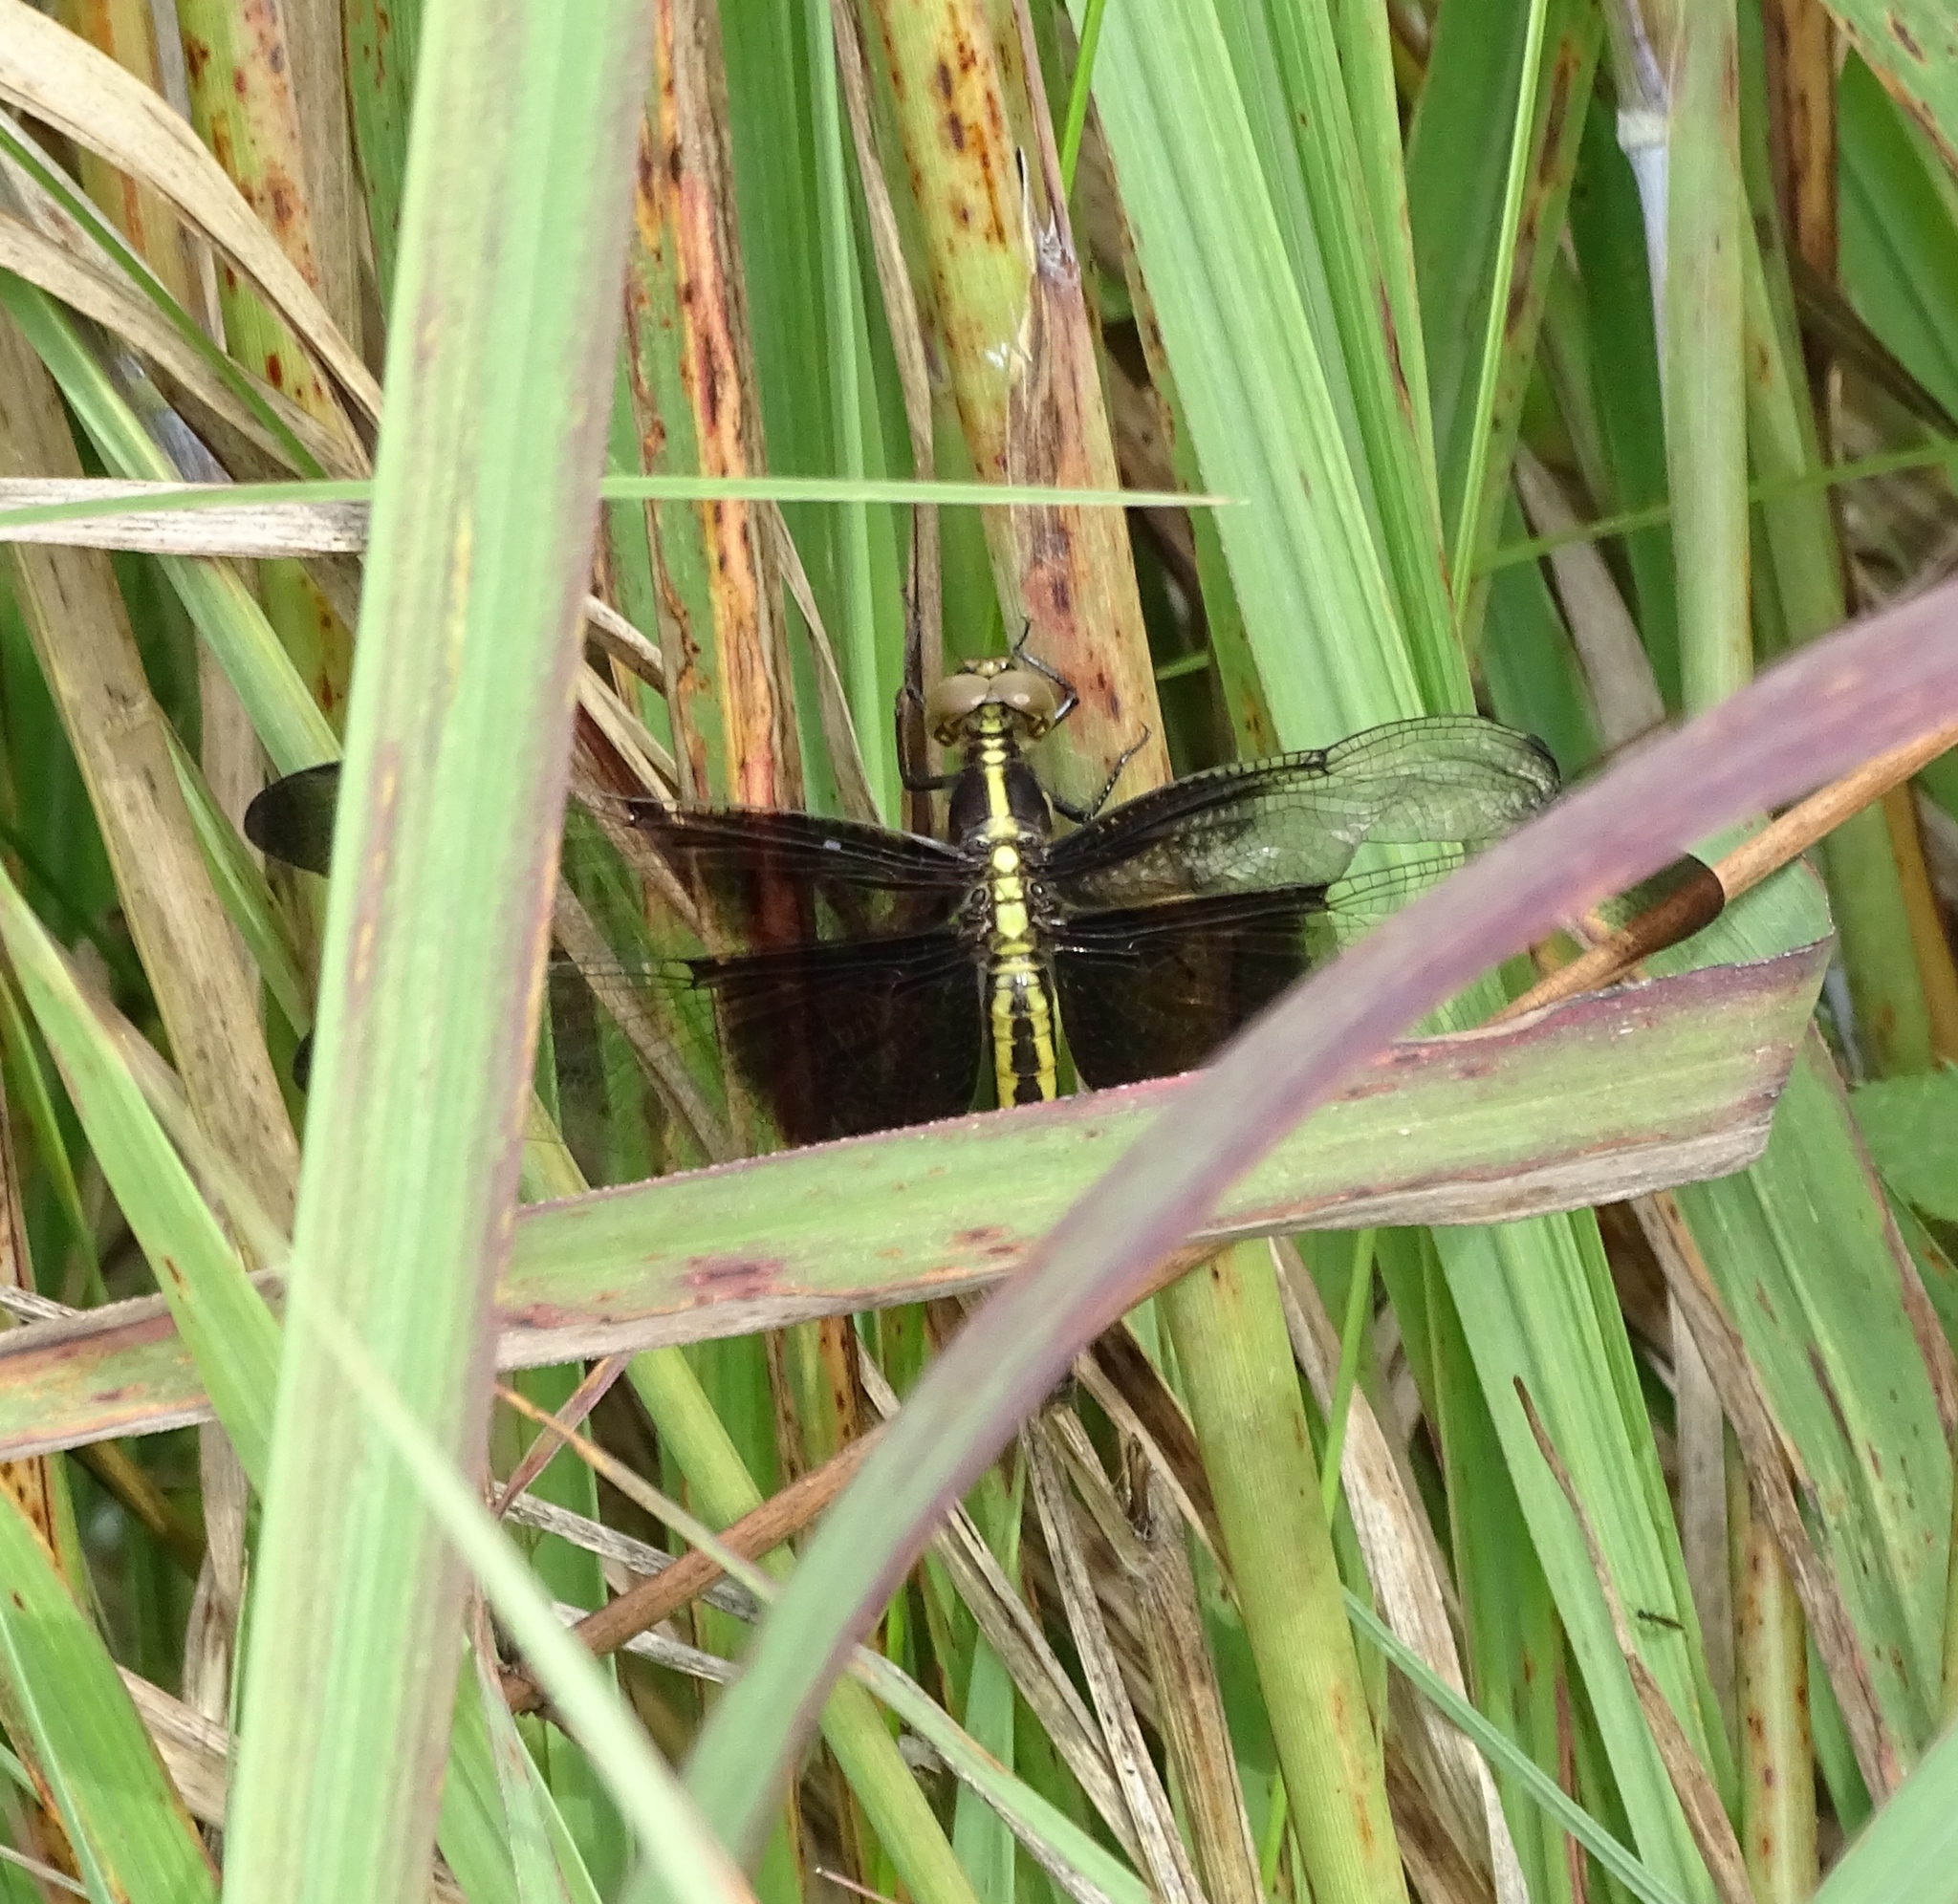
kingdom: Animalia
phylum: Arthropoda
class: Insecta
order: Odonata
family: Libellulidae
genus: Libellula
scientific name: Libellula luctuosa
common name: Widow skimmer
